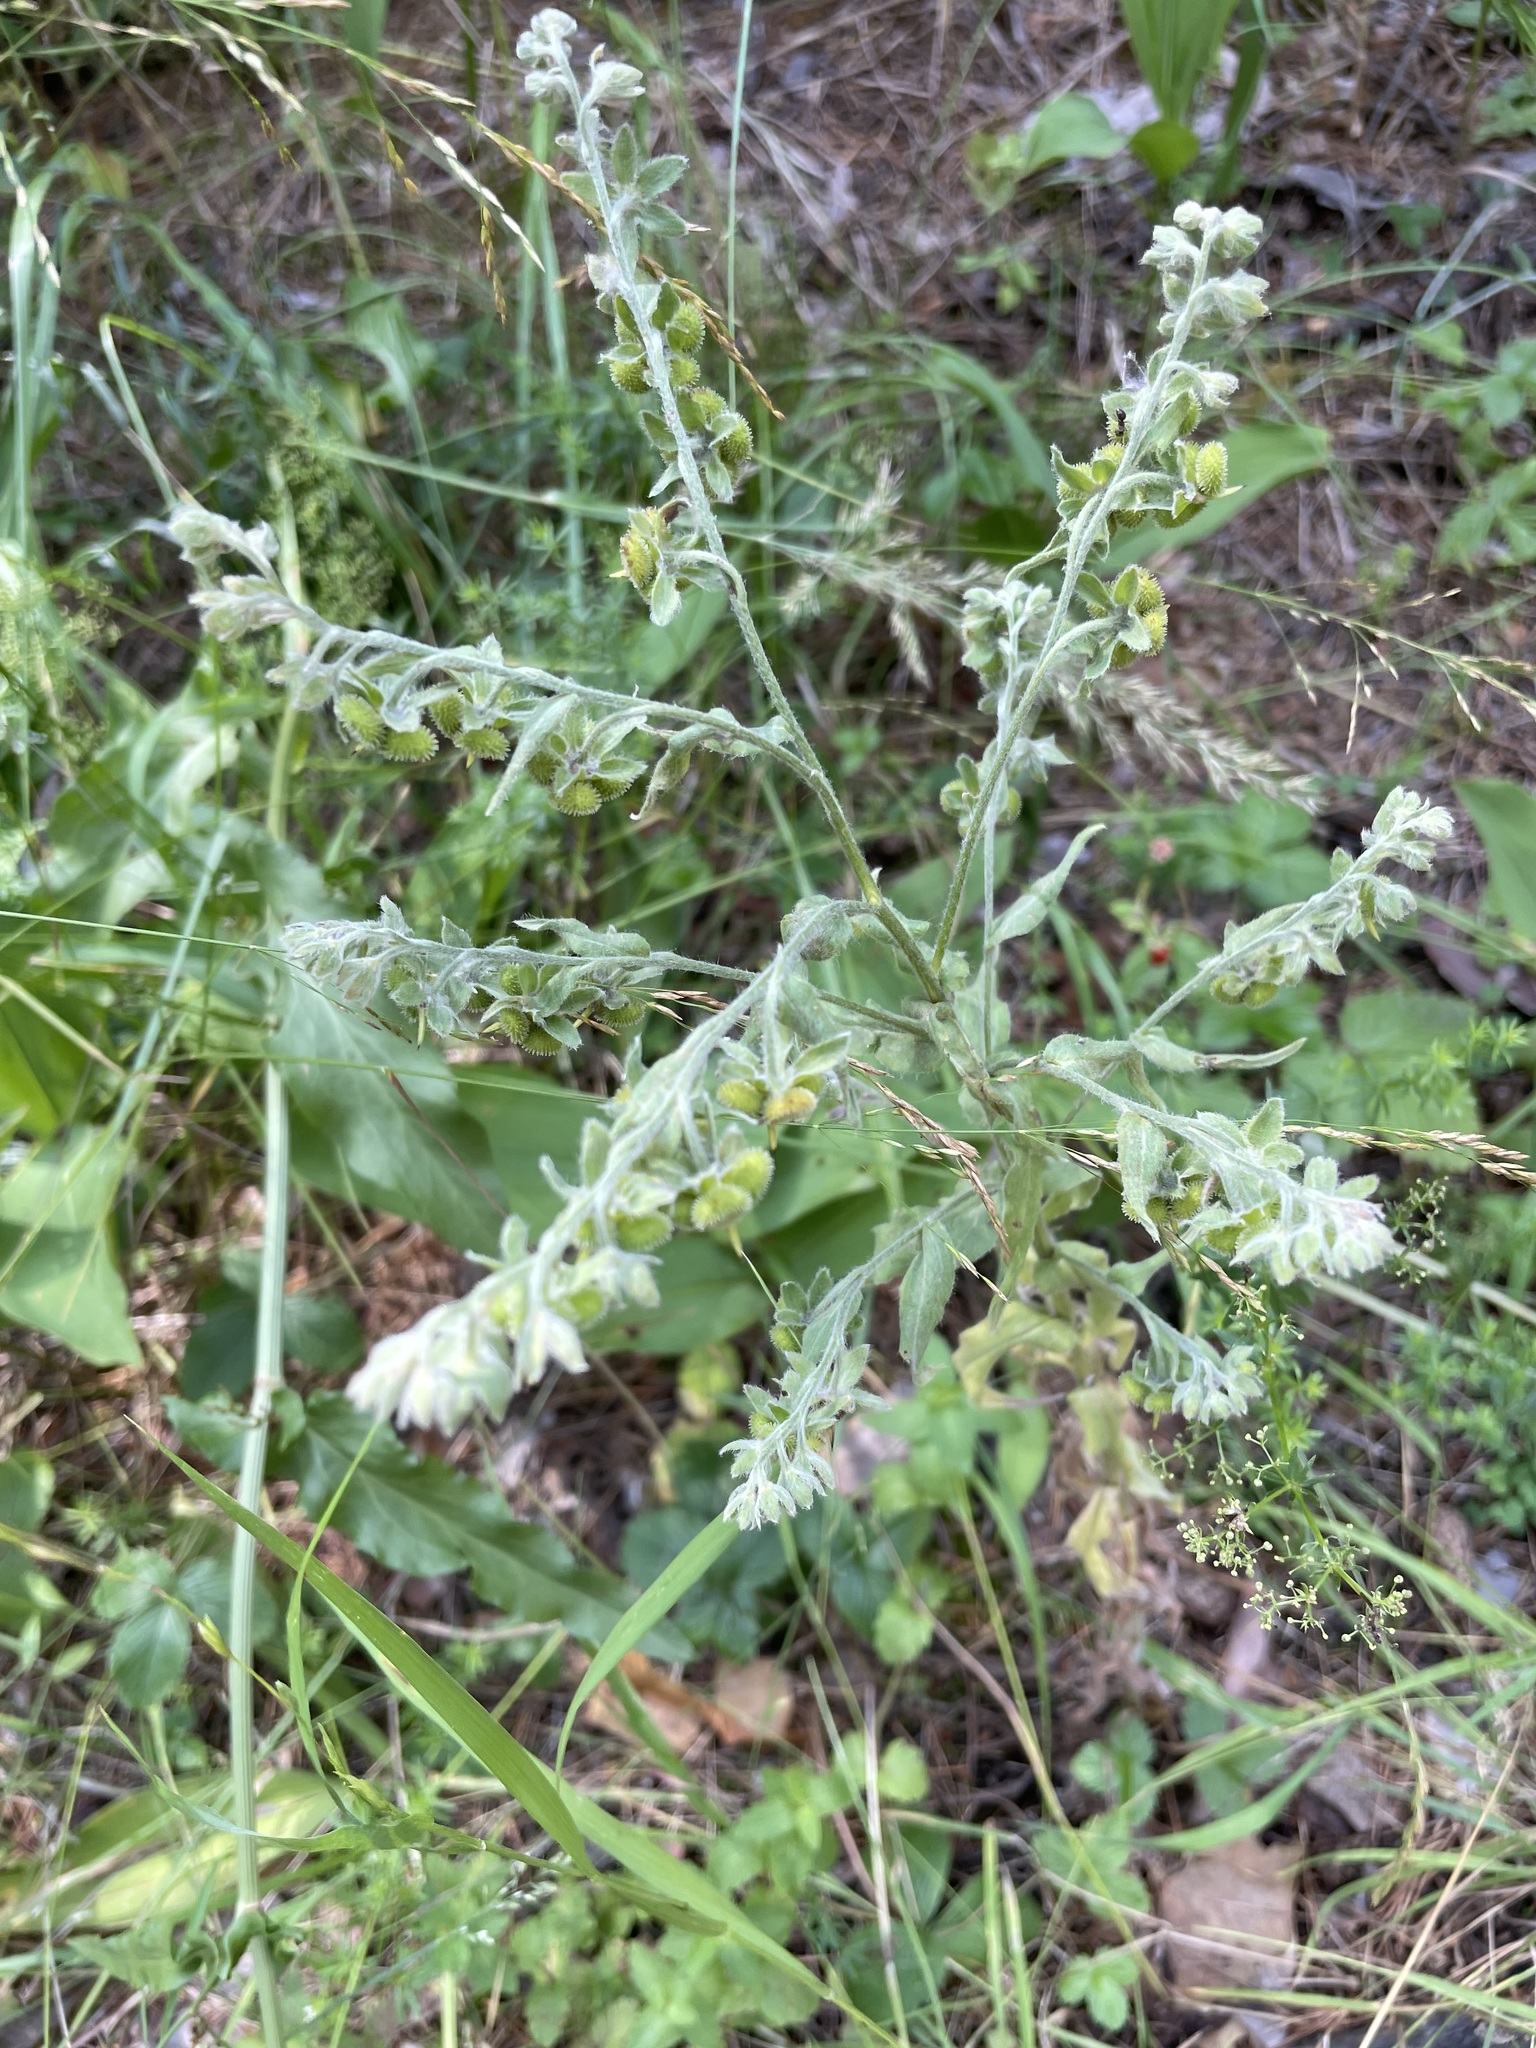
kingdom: Plantae
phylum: Tracheophyta
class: Magnoliopsida
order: Boraginales
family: Boraginaceae
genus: Cynoglossum
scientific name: Cynoglossum officinale
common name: Hound's-tongue
